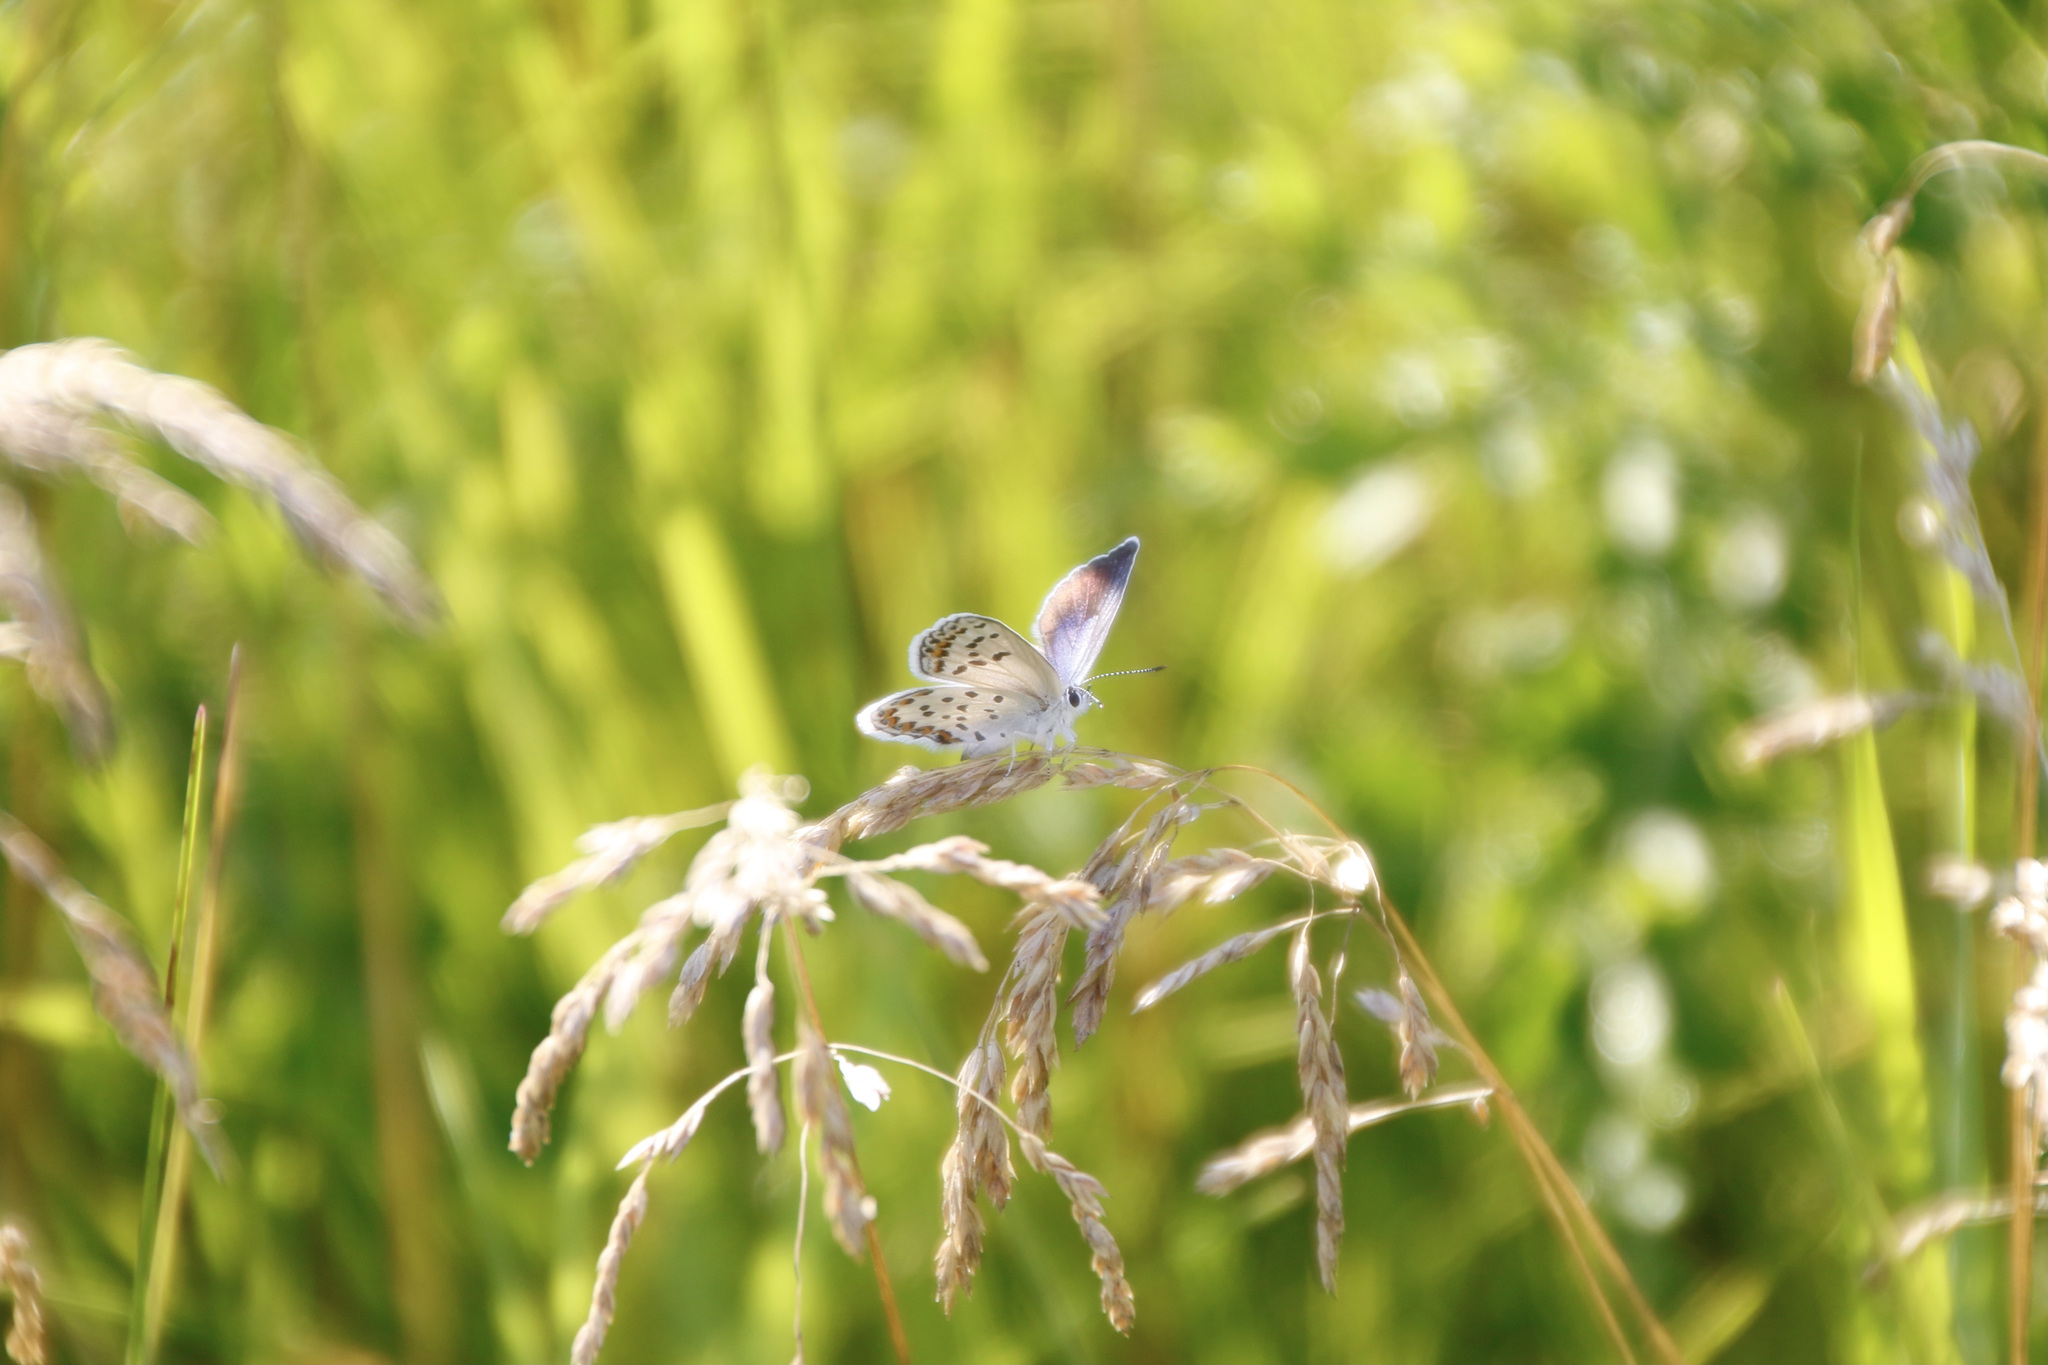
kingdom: Animalia
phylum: Arthropoda
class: Insecta
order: Lepidoptera
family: Lycaenidae
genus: Lycaeides
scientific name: Lycaeides idas
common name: Northern blue
